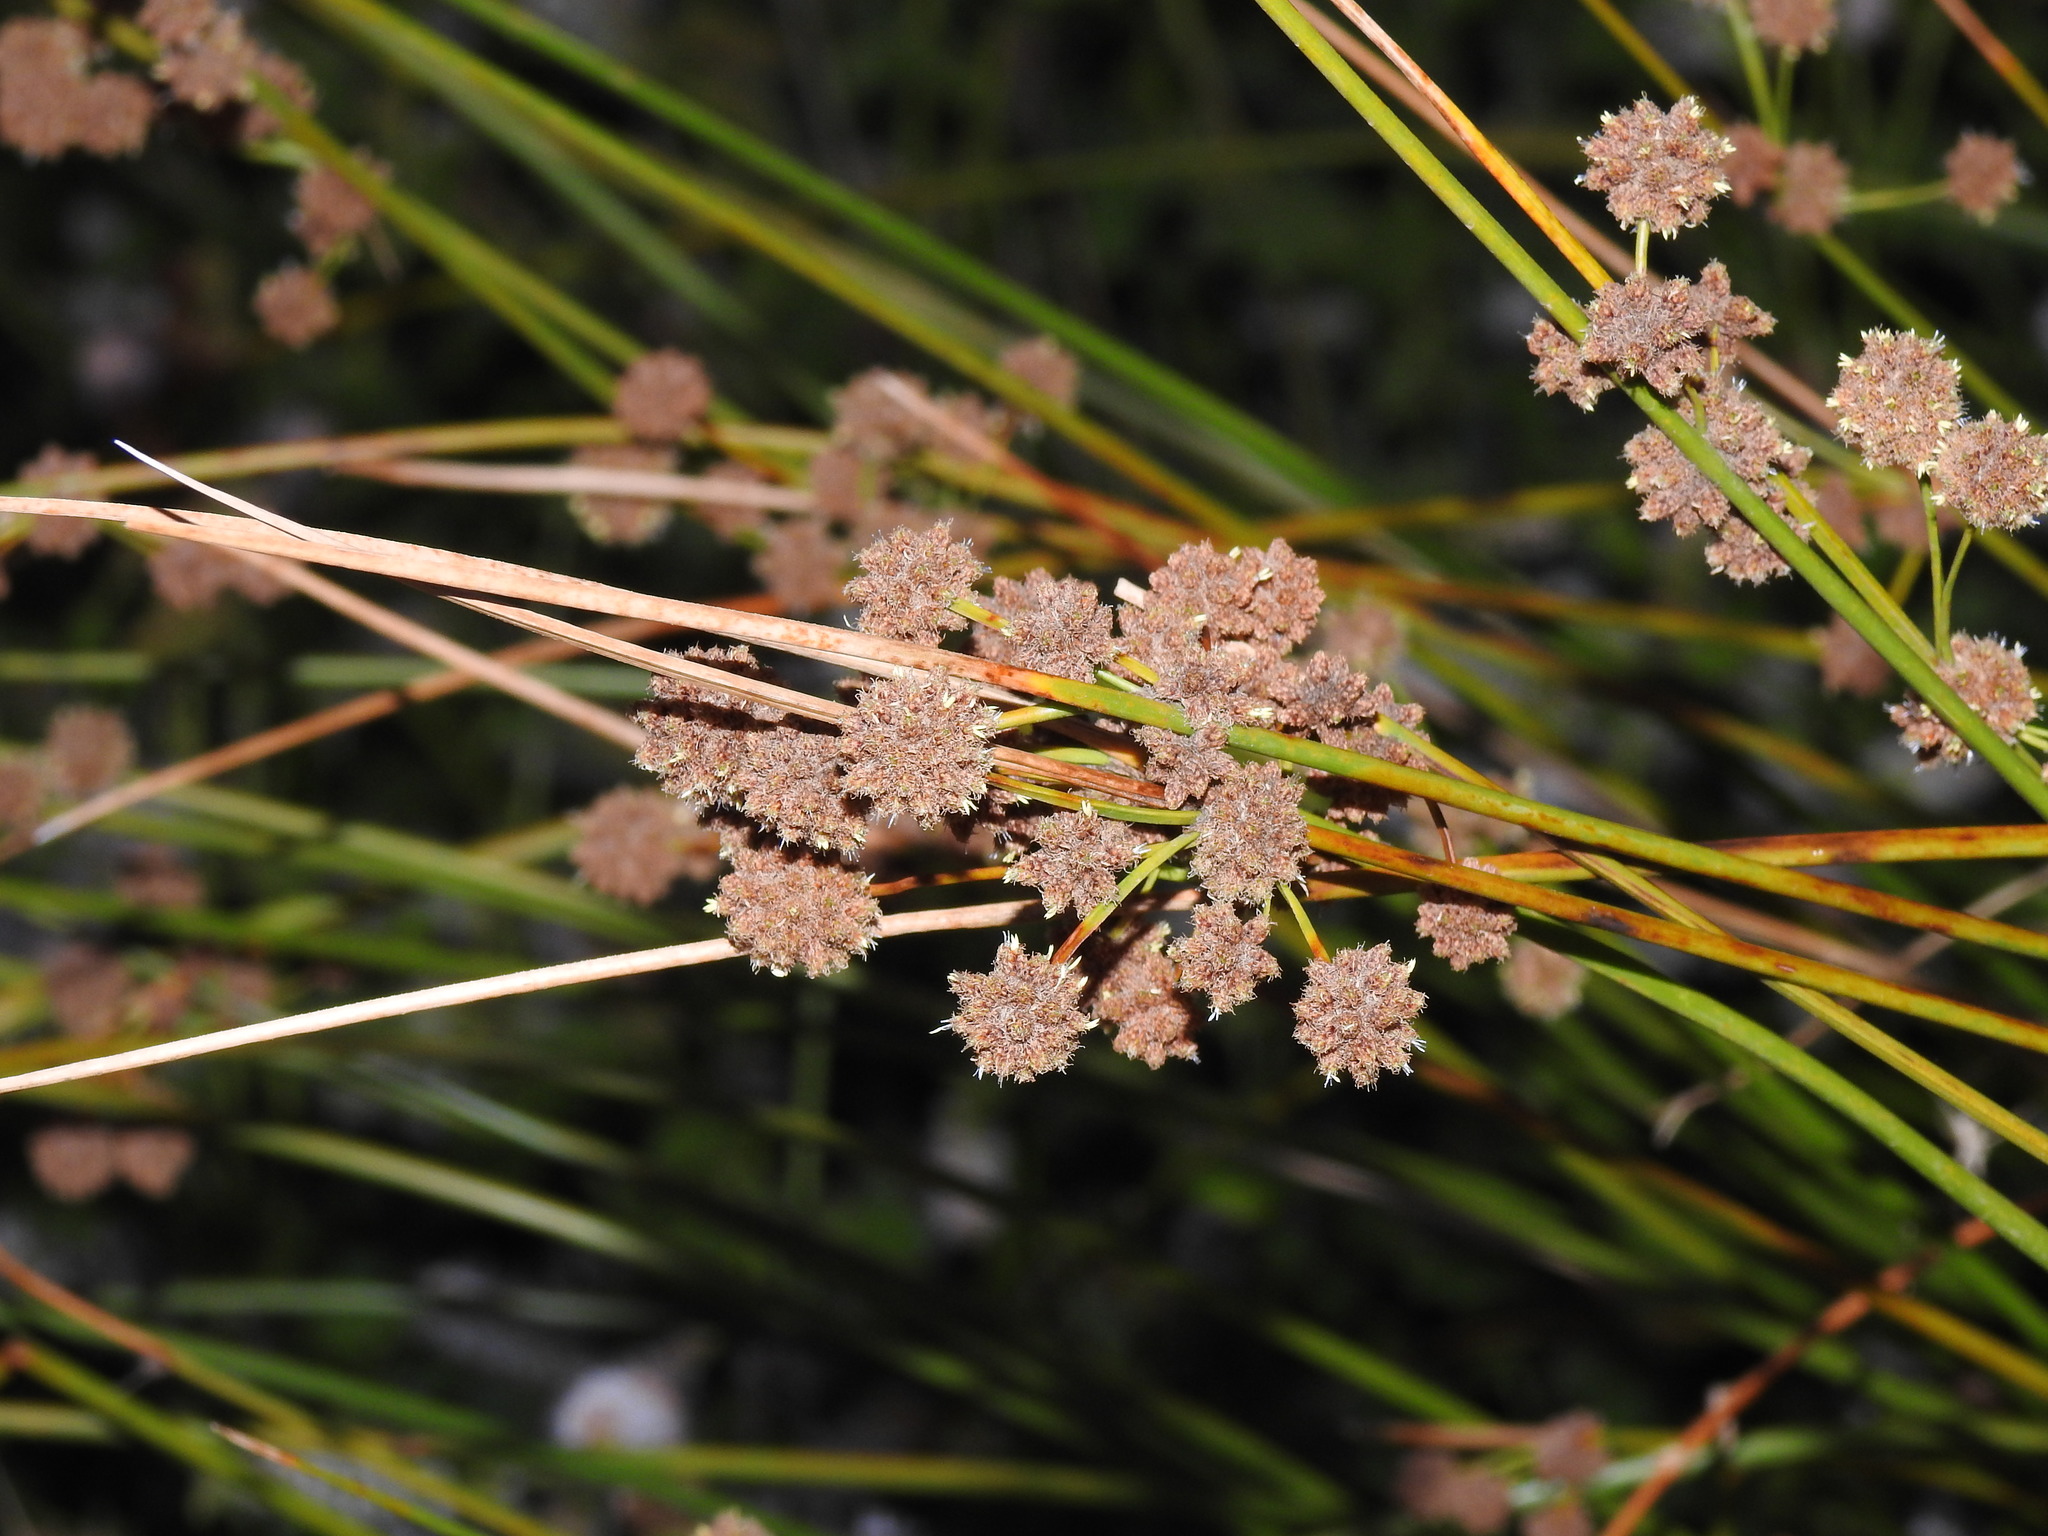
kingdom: Plantae
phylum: Tracheophyta
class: Liliopsida
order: Poales
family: Cyperaceae
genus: Scirpoides
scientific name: Scirpoides holoschoenus
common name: Round-headed club-rush
